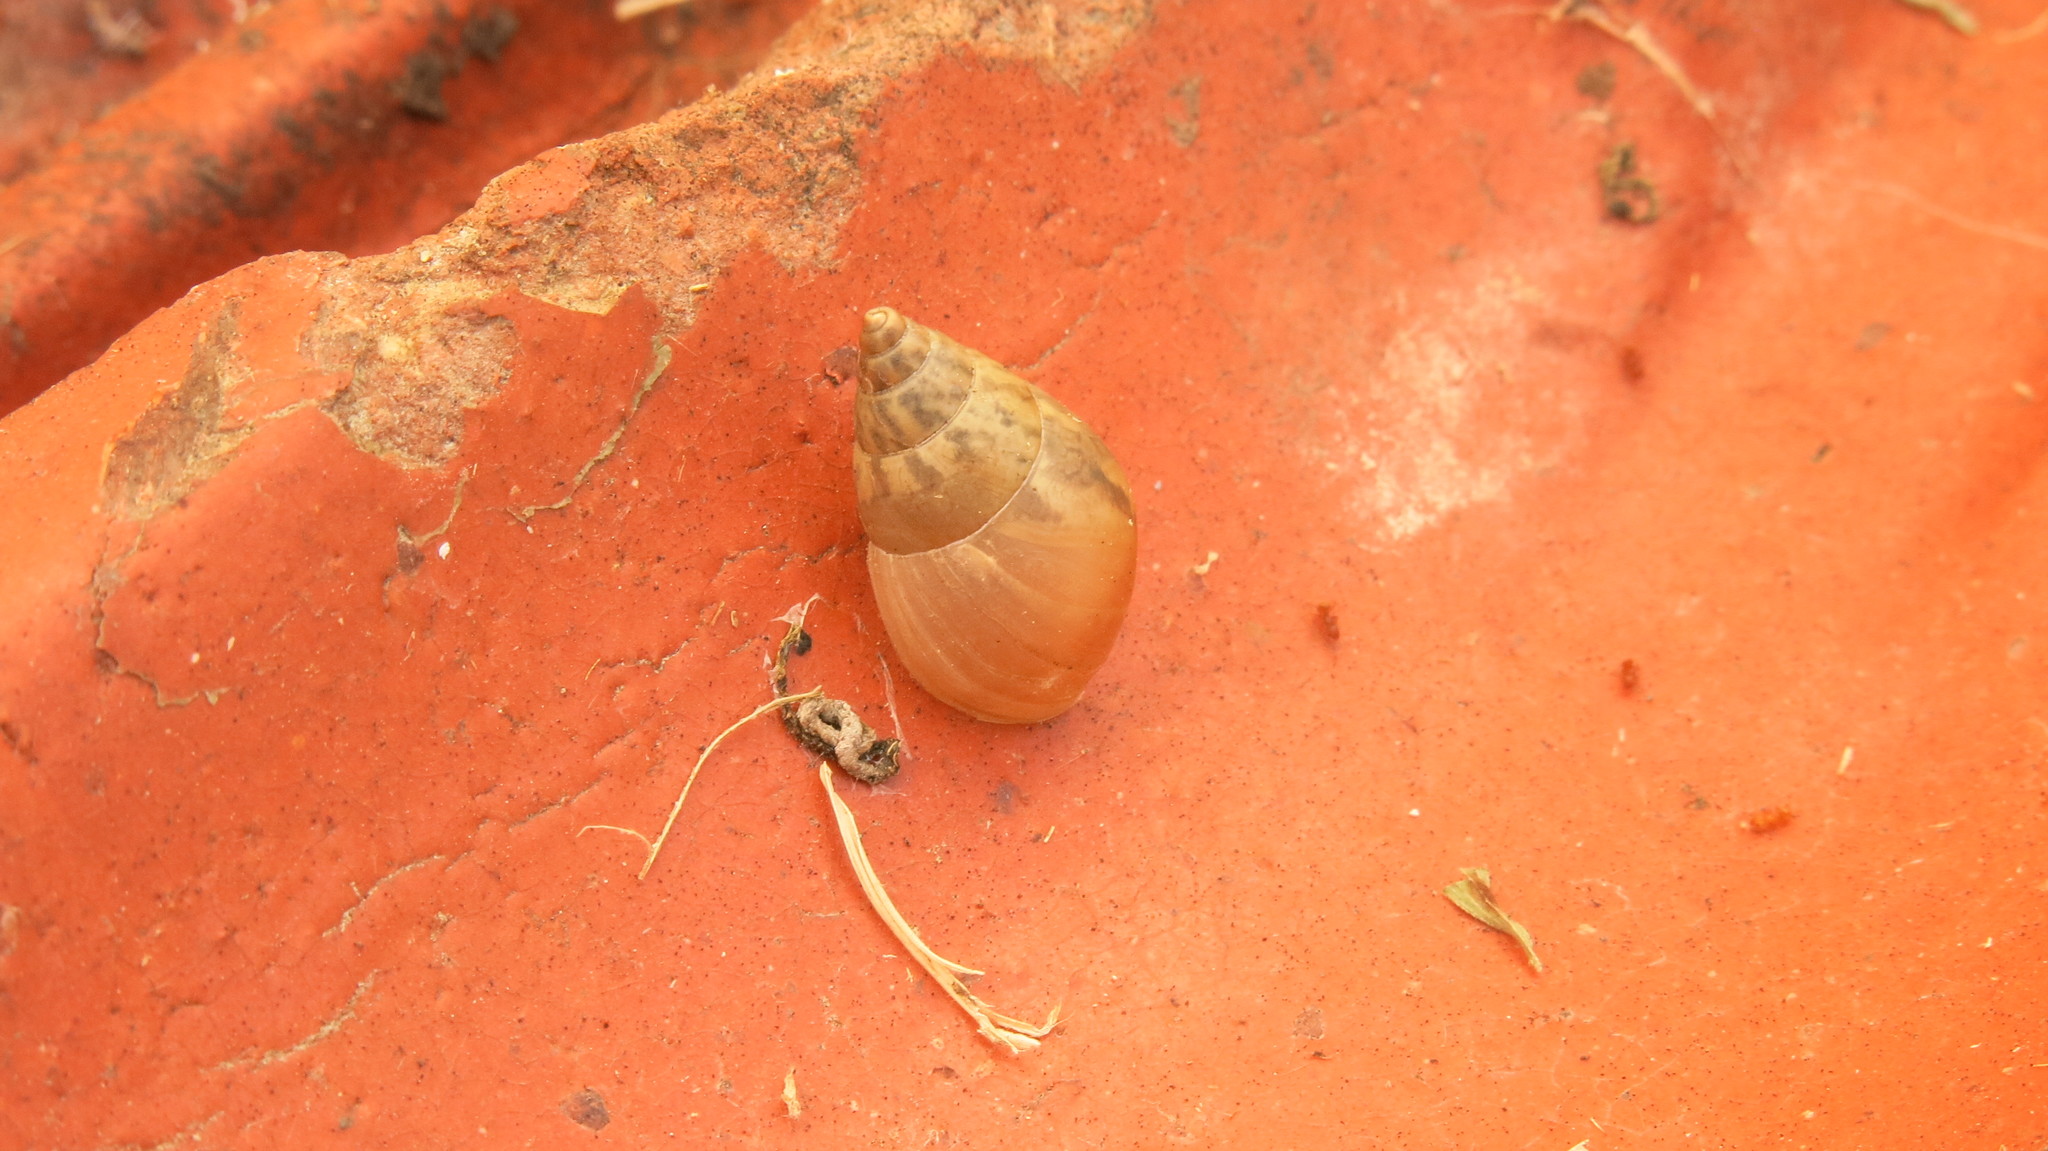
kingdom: Animalia
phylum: Mollusca
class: Gastropoda
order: Stylommatophora
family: Bulimulidae
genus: Bulimulus
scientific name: Bulimulus bonariensis
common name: Snail
